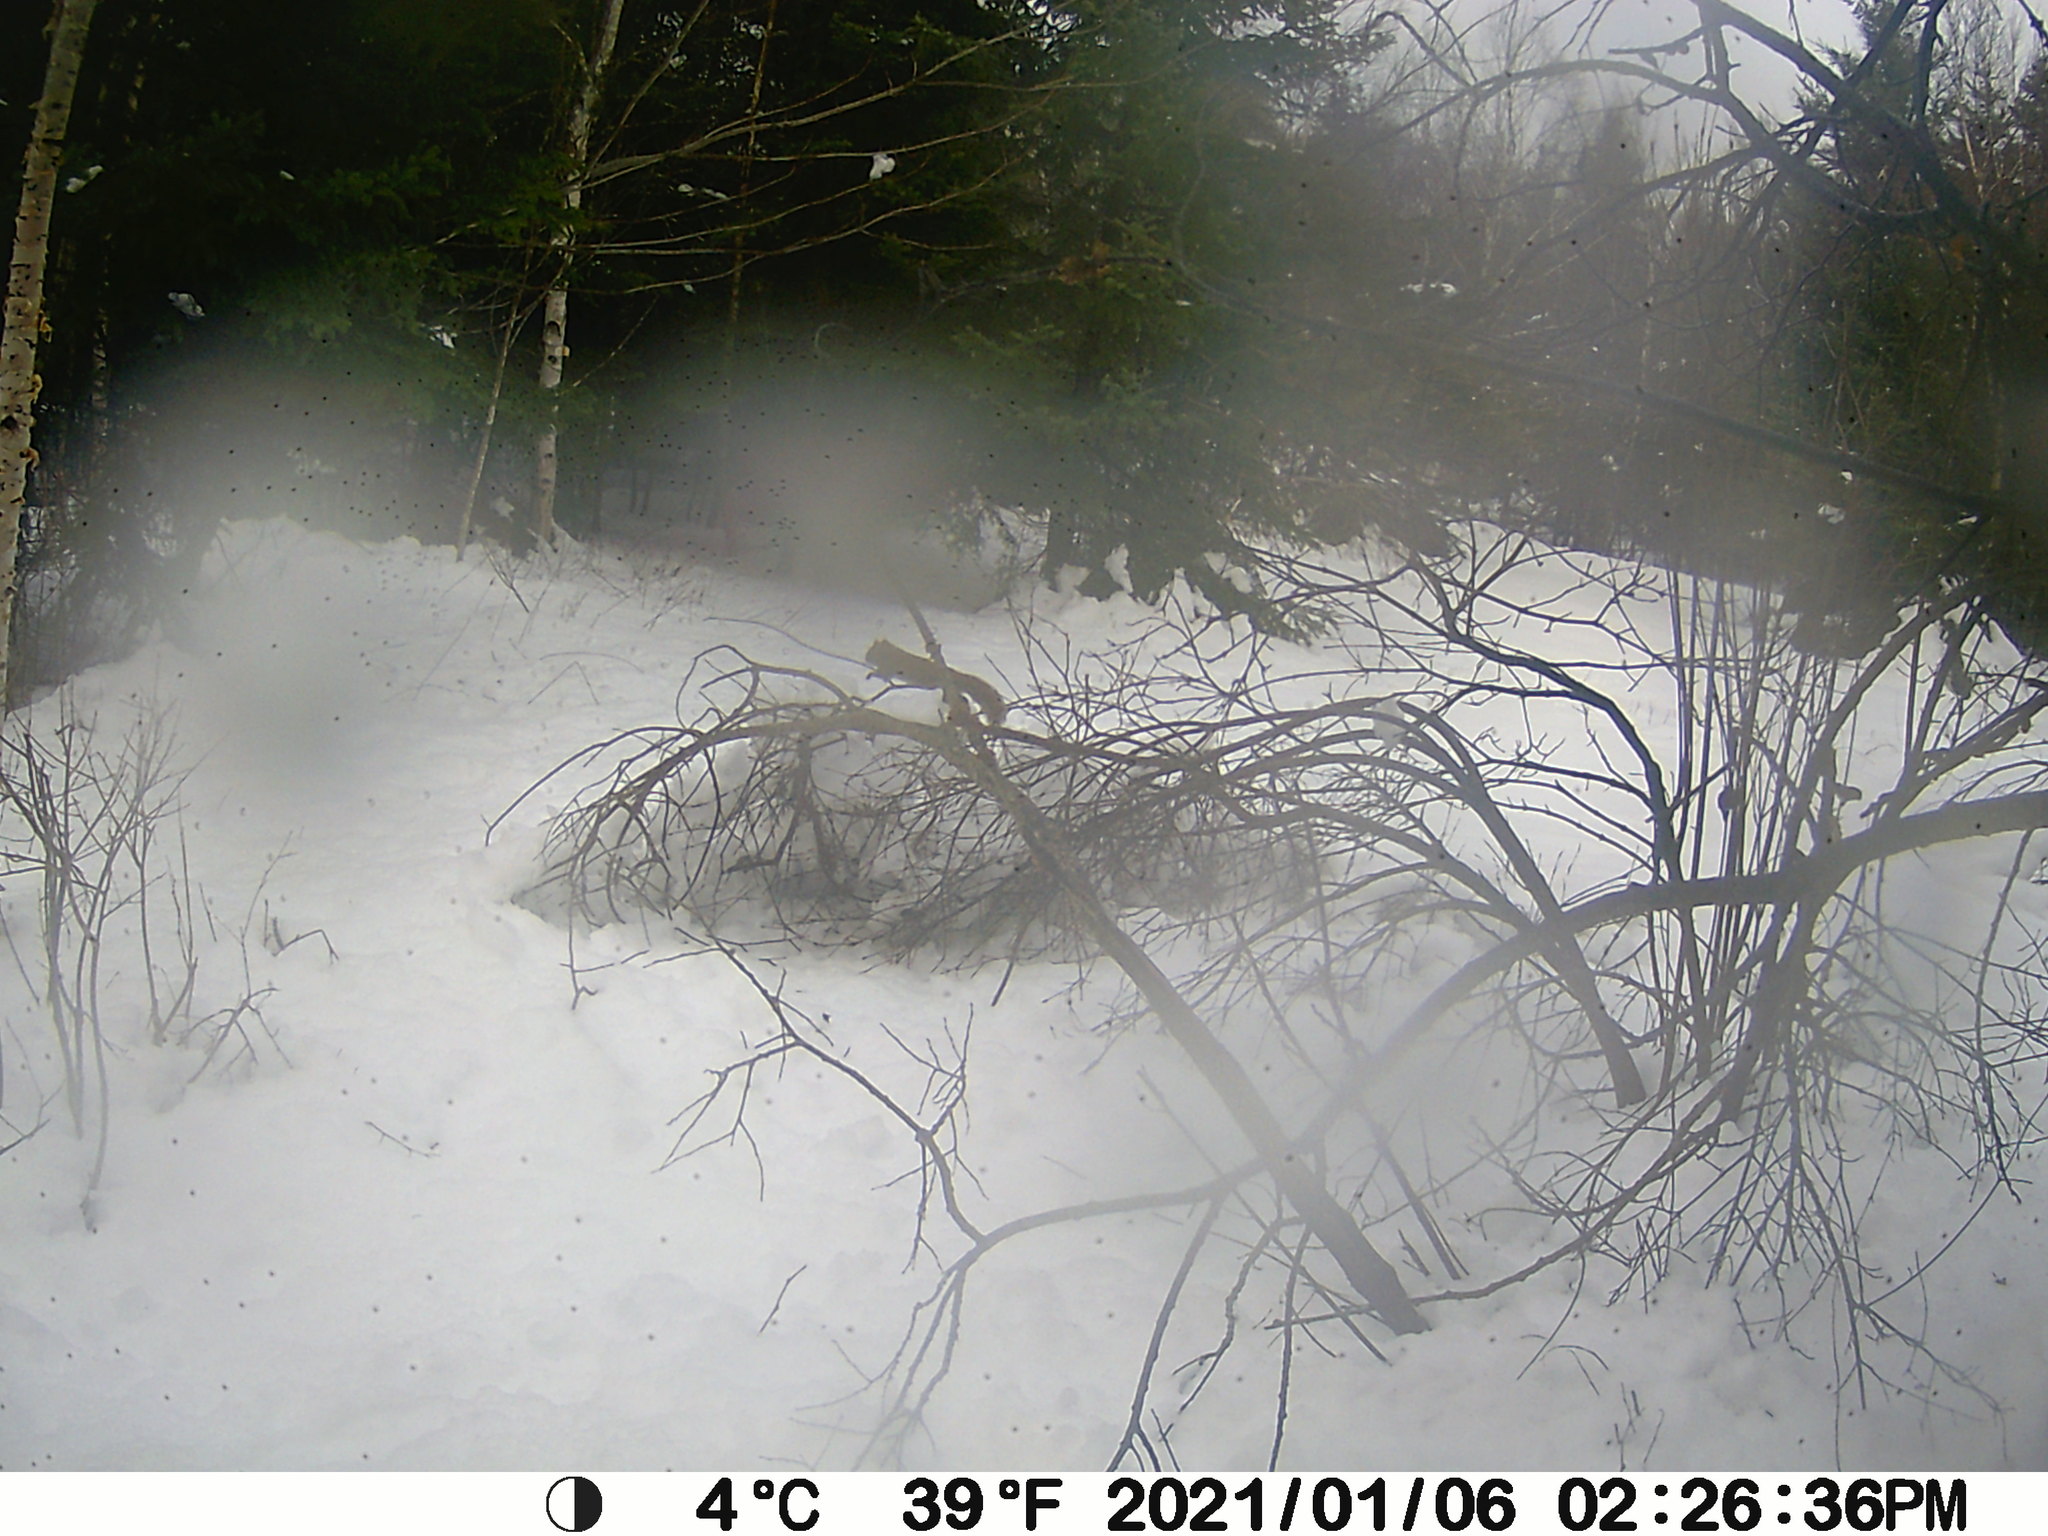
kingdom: Animalia
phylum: Chordata
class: Mammalia
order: Rodentia
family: Sciuridae
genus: Tamiasciurus
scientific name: Tamiasciurus hudsonicus
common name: Red squirrel
